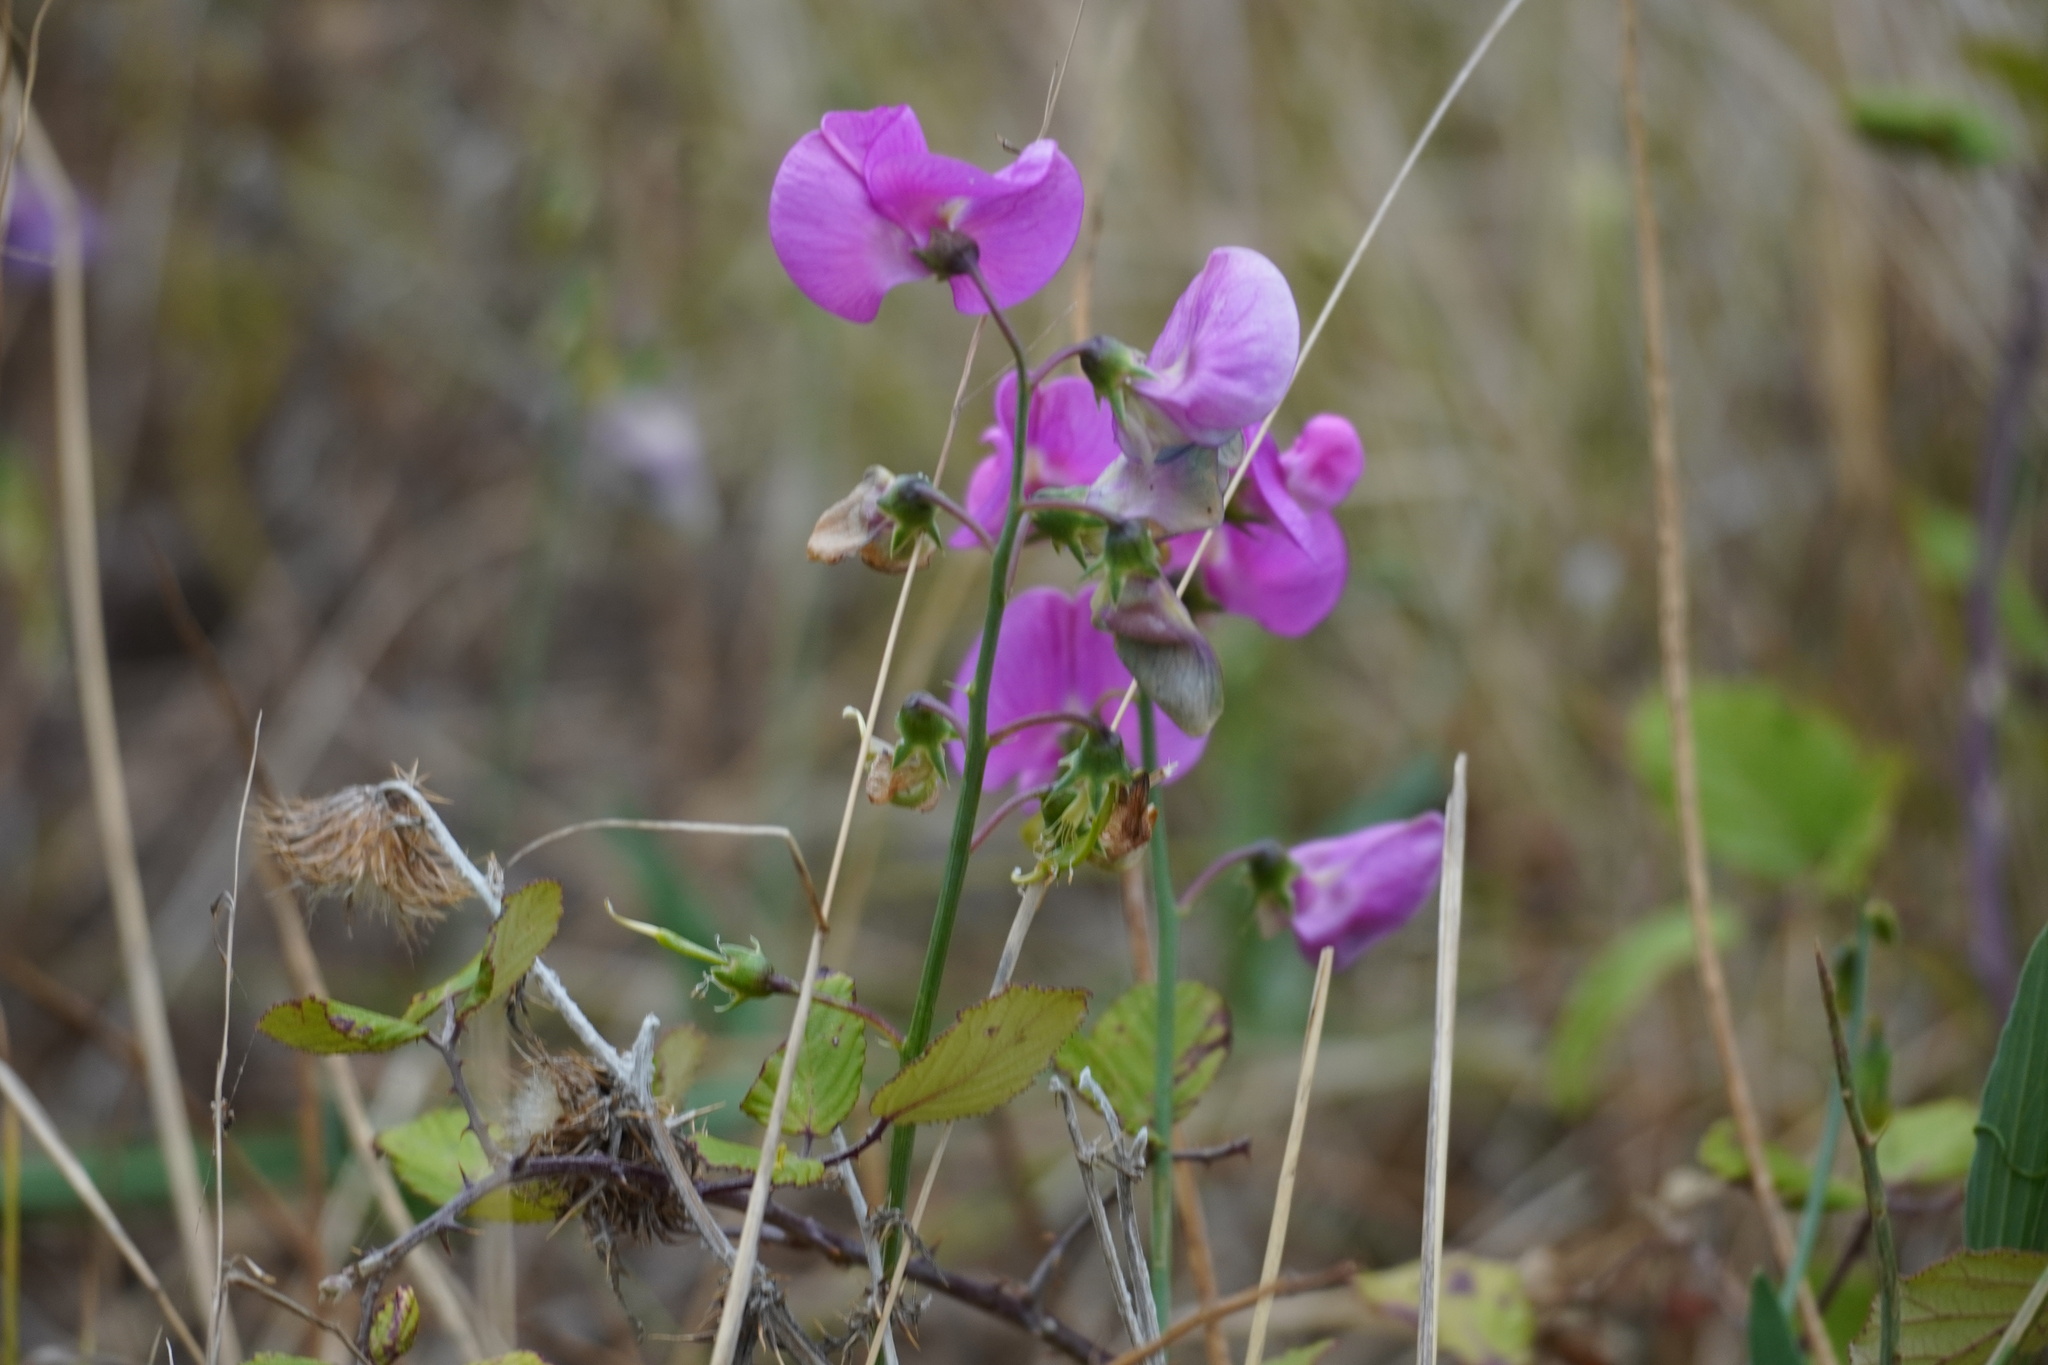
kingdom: Plantae
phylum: Tracheophyta
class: Magnoliopsida
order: Fabales
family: Fabaceae
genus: Lathyrus
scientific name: Lathyrus latifolius
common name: Perennial pea
